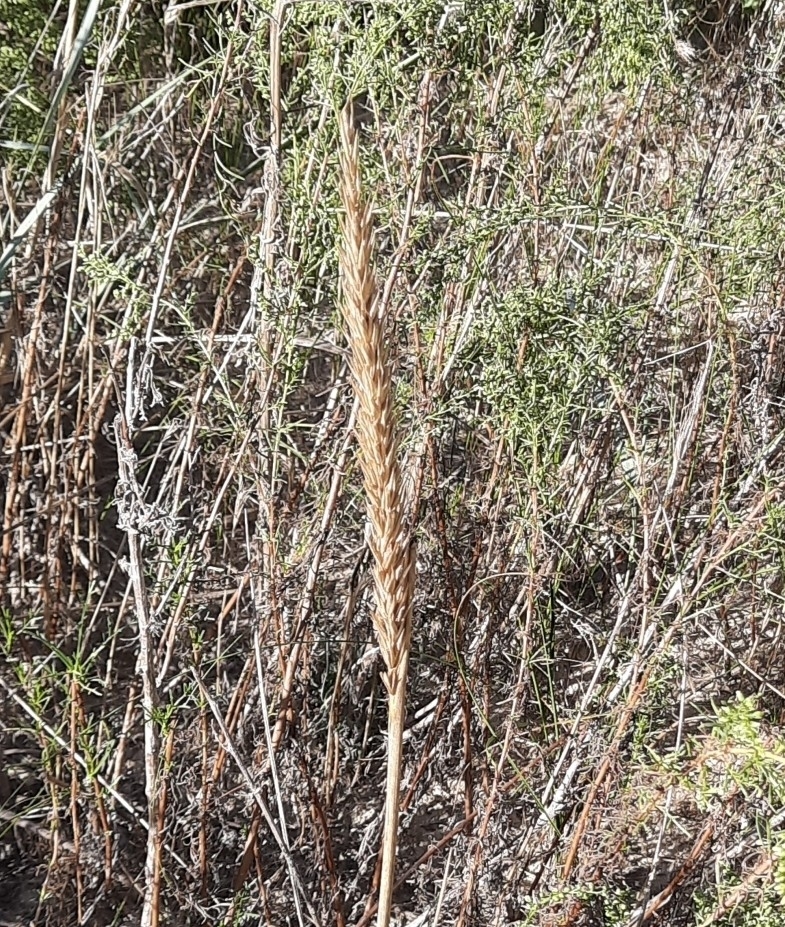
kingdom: Plantae
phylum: Tracheophyta
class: Liliopsida
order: Poales
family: Poaceae
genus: Leymus
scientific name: Leymus racemosus
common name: Mammoth wildrye
